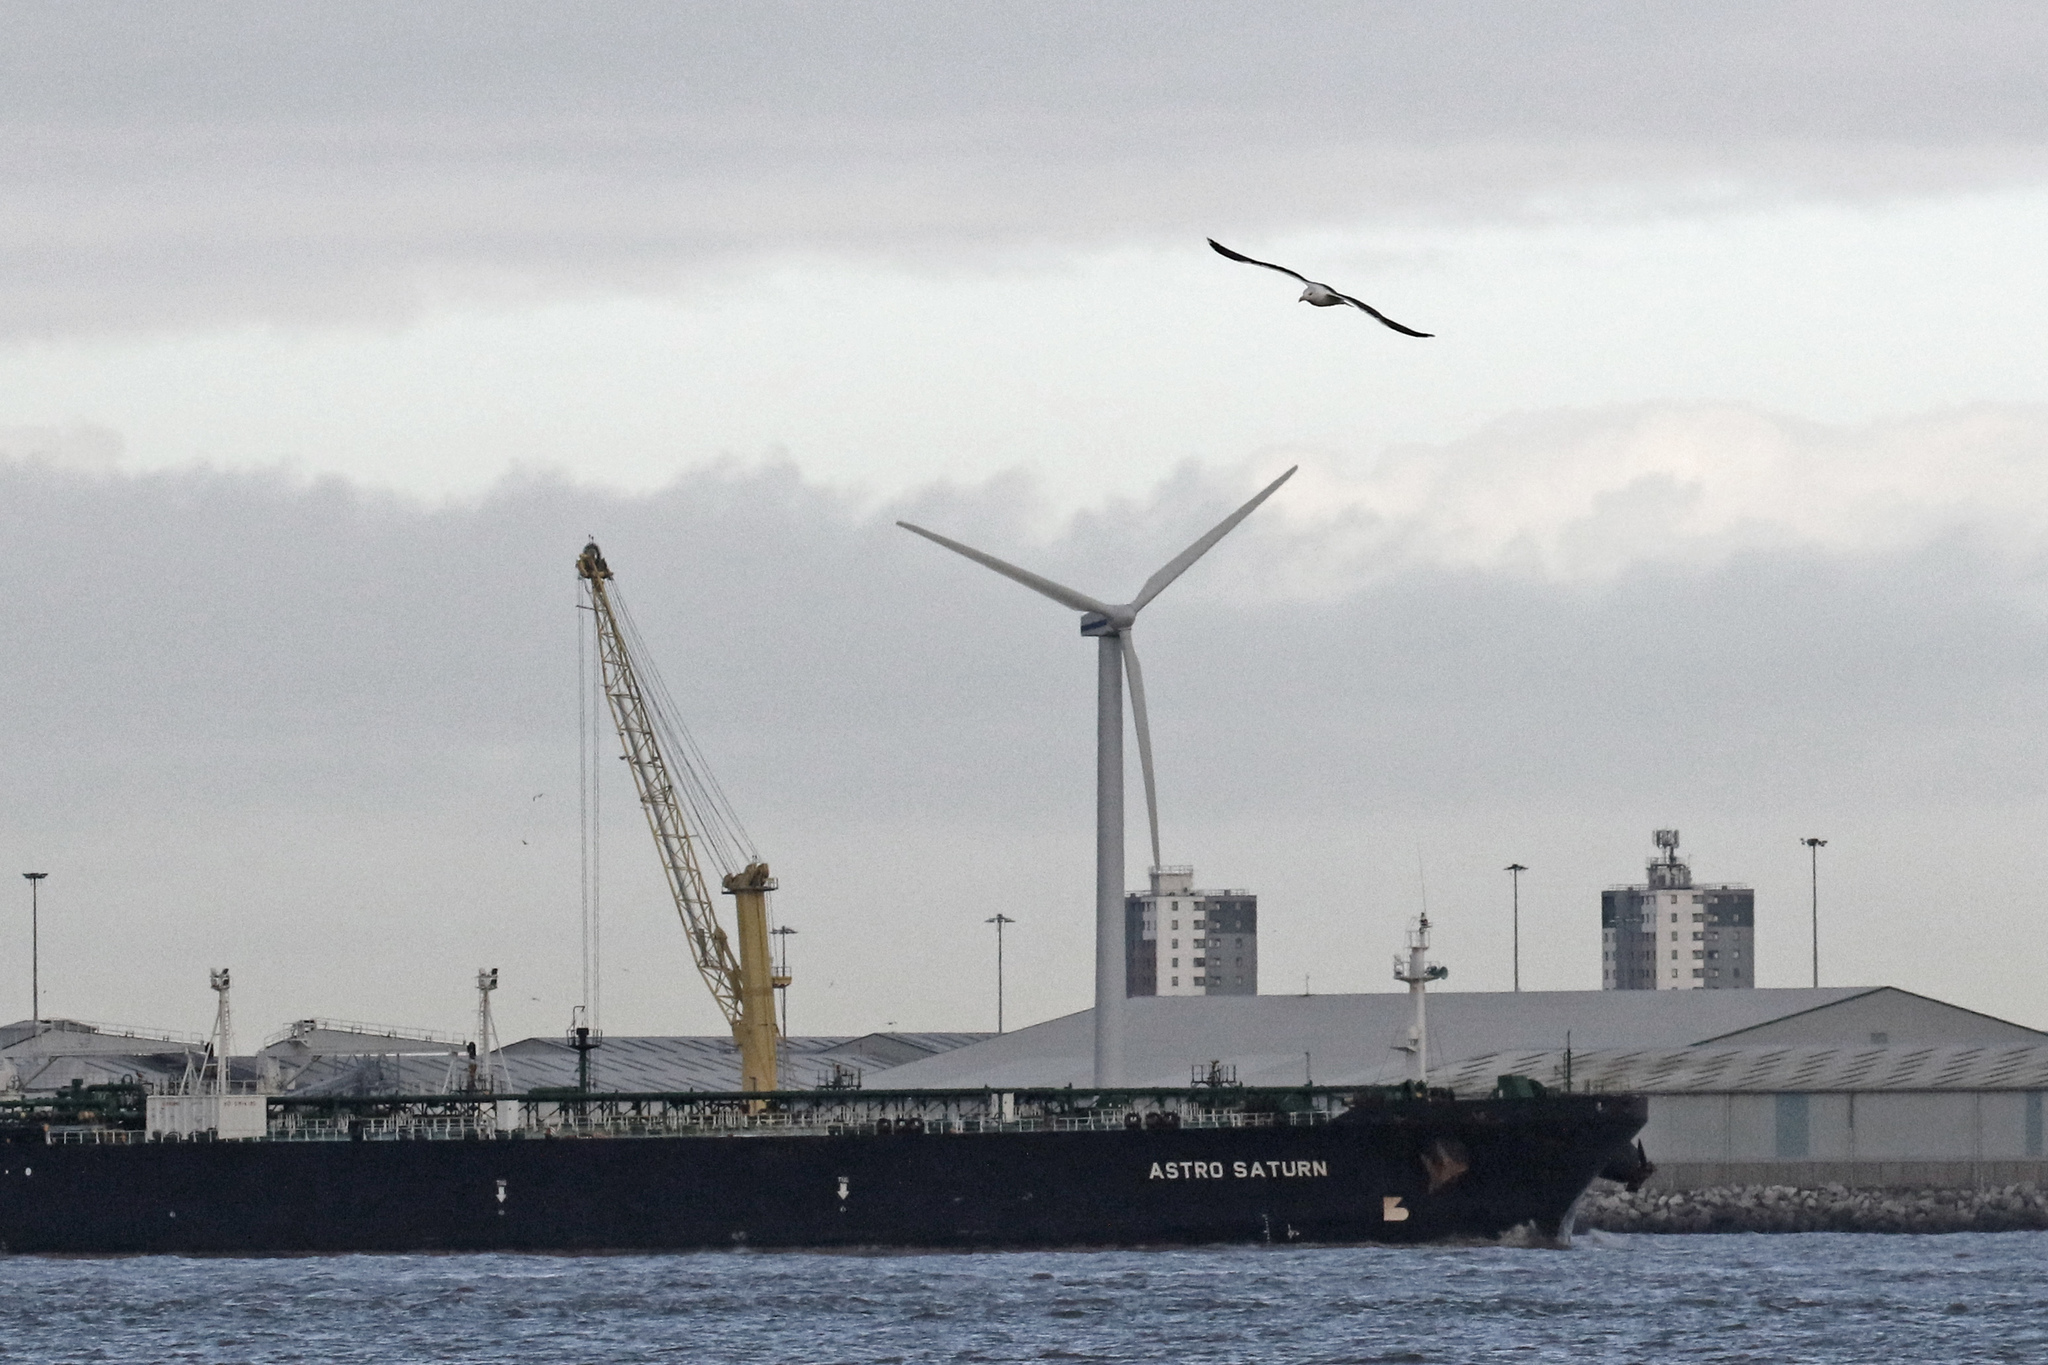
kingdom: Animalia
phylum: Chordata
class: Aves
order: Charadriiformes
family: Laridae
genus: Larus
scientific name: Larus marinus
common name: Great black-backed gull
